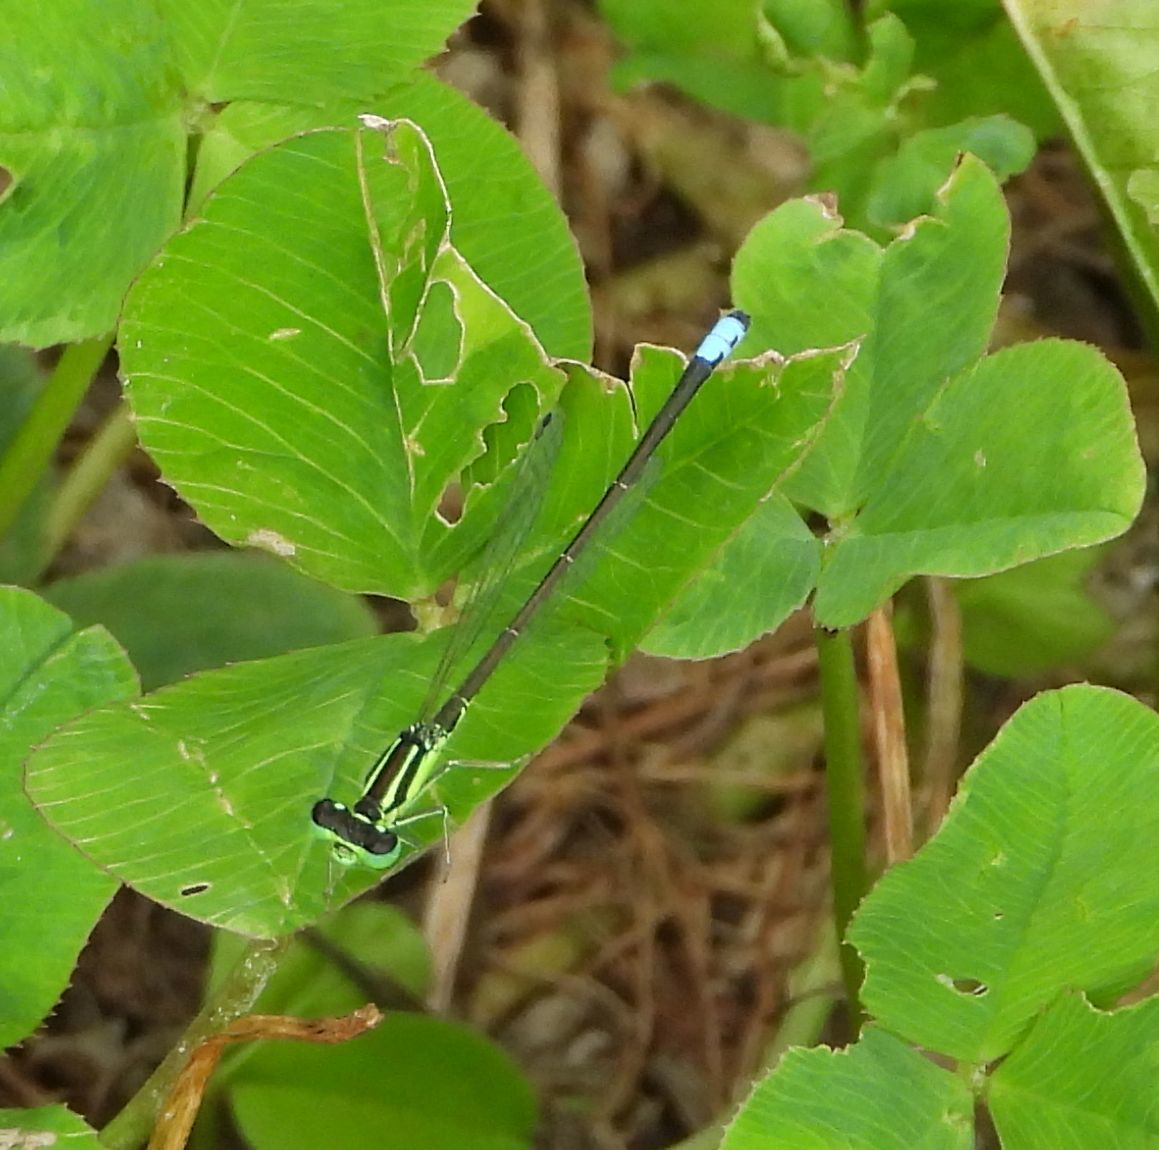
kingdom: Animalia
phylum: Arthropoda
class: Insecta
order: Odonata
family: Coenagrionidae
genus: Ischnura
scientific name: Ischnura verticalis
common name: Eastern forktail
